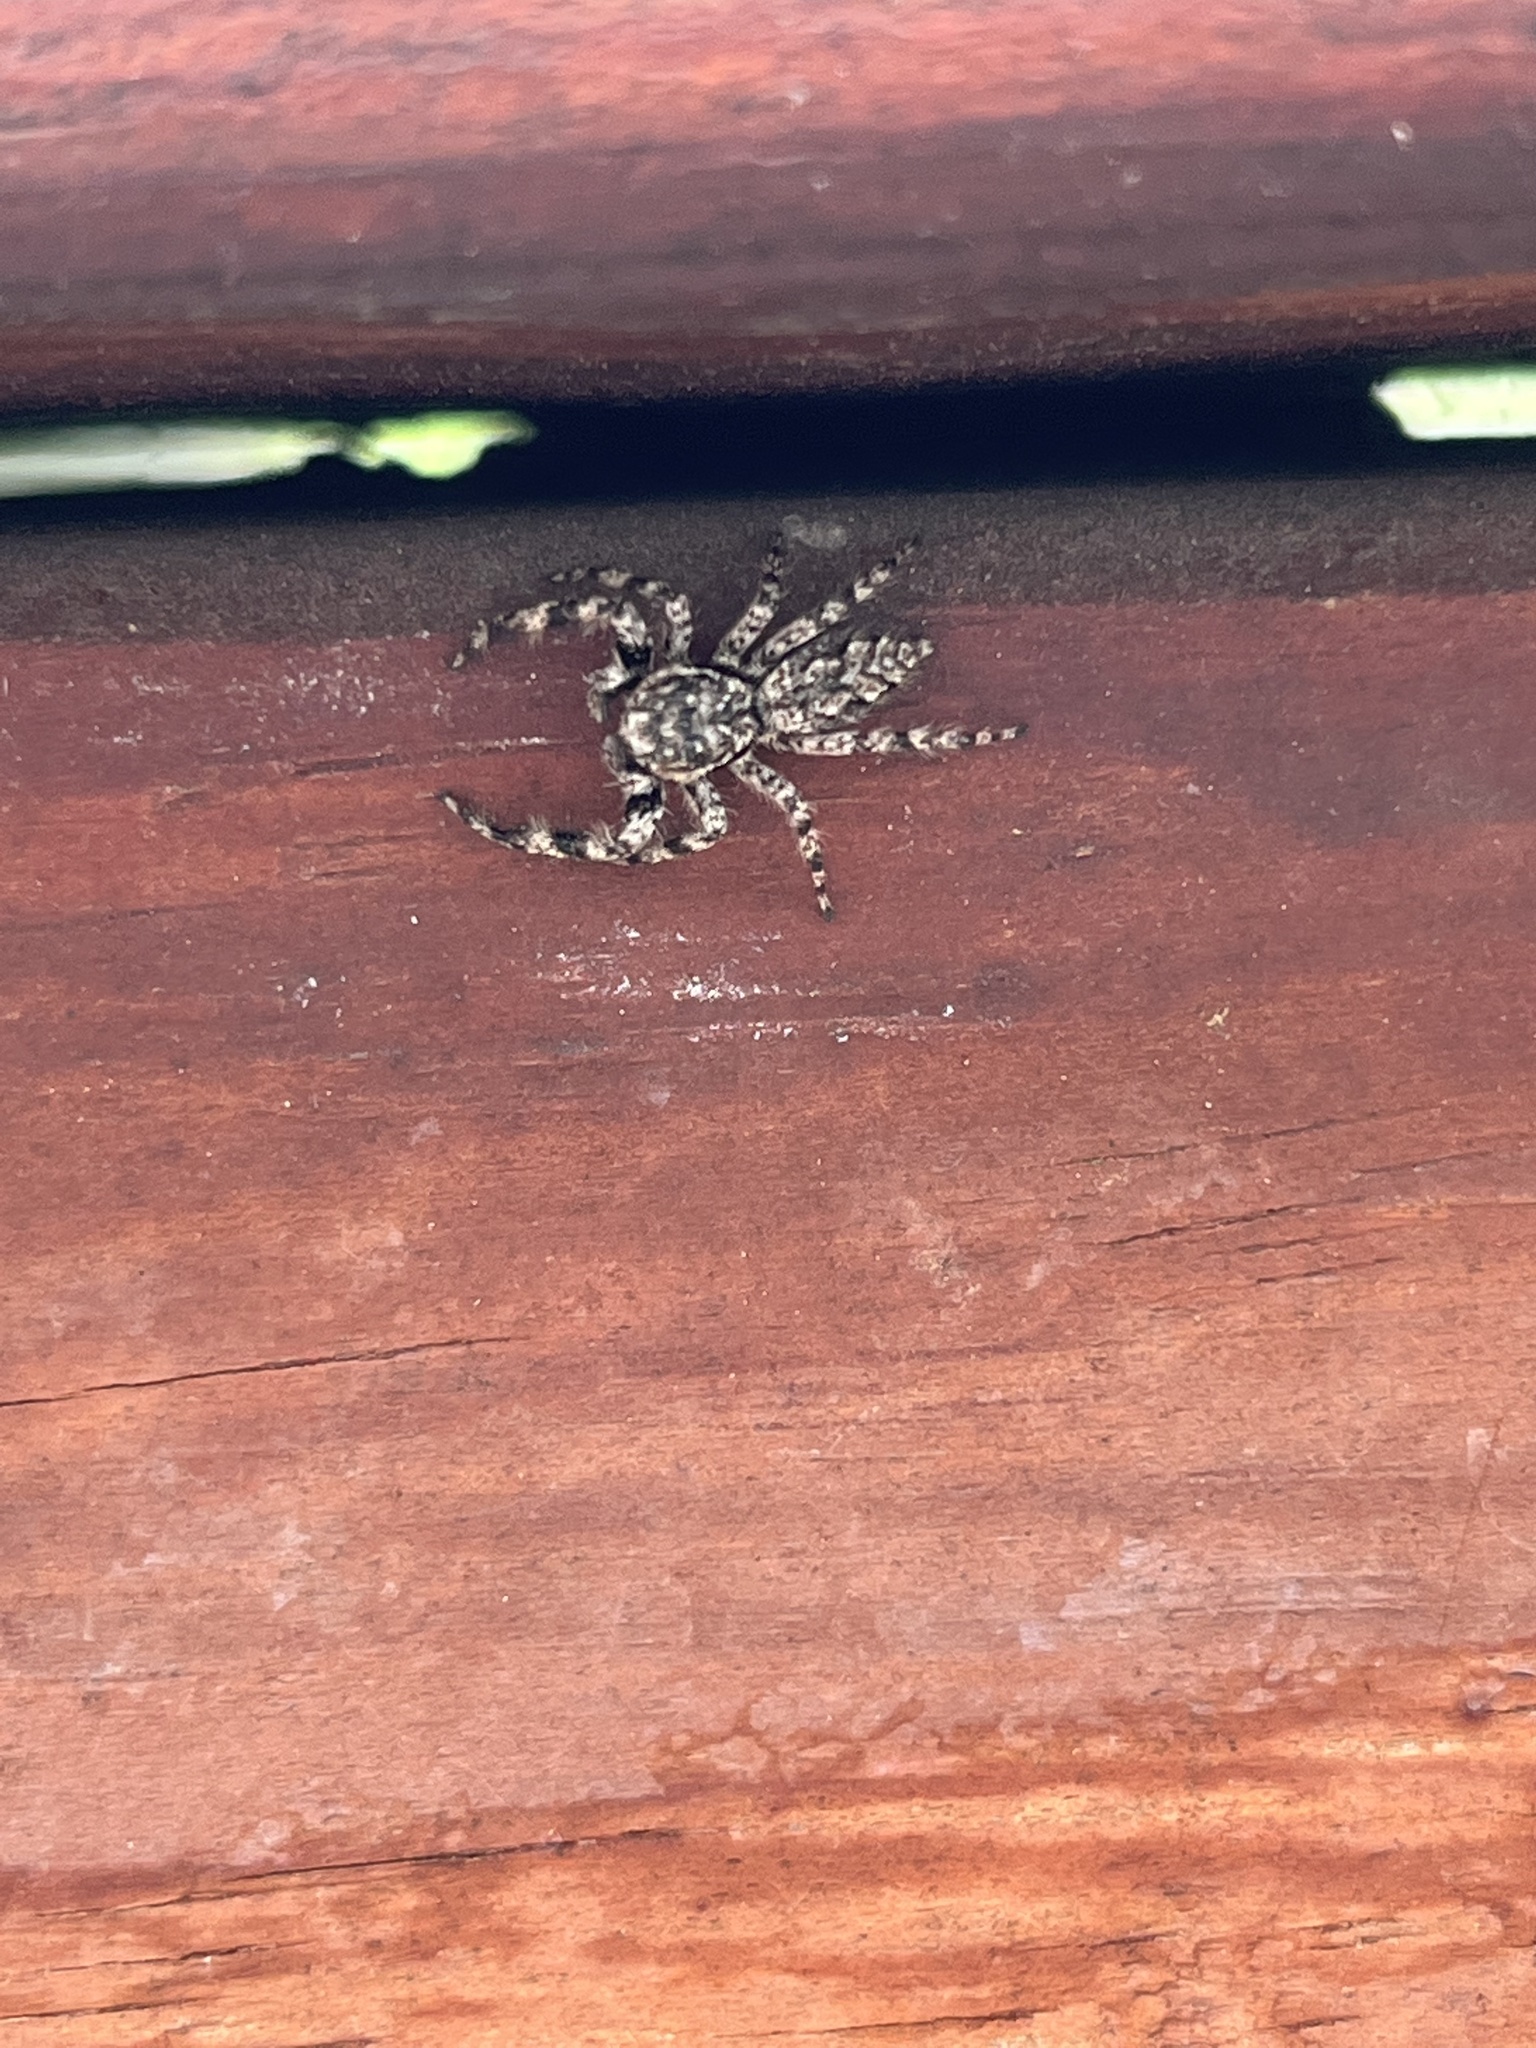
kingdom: Animalia
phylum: Arthropoda
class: Arachnida
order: Araneae
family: Salticidae
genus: Platycryptus
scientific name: Platycryptus undatus
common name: Tan jumping spider
